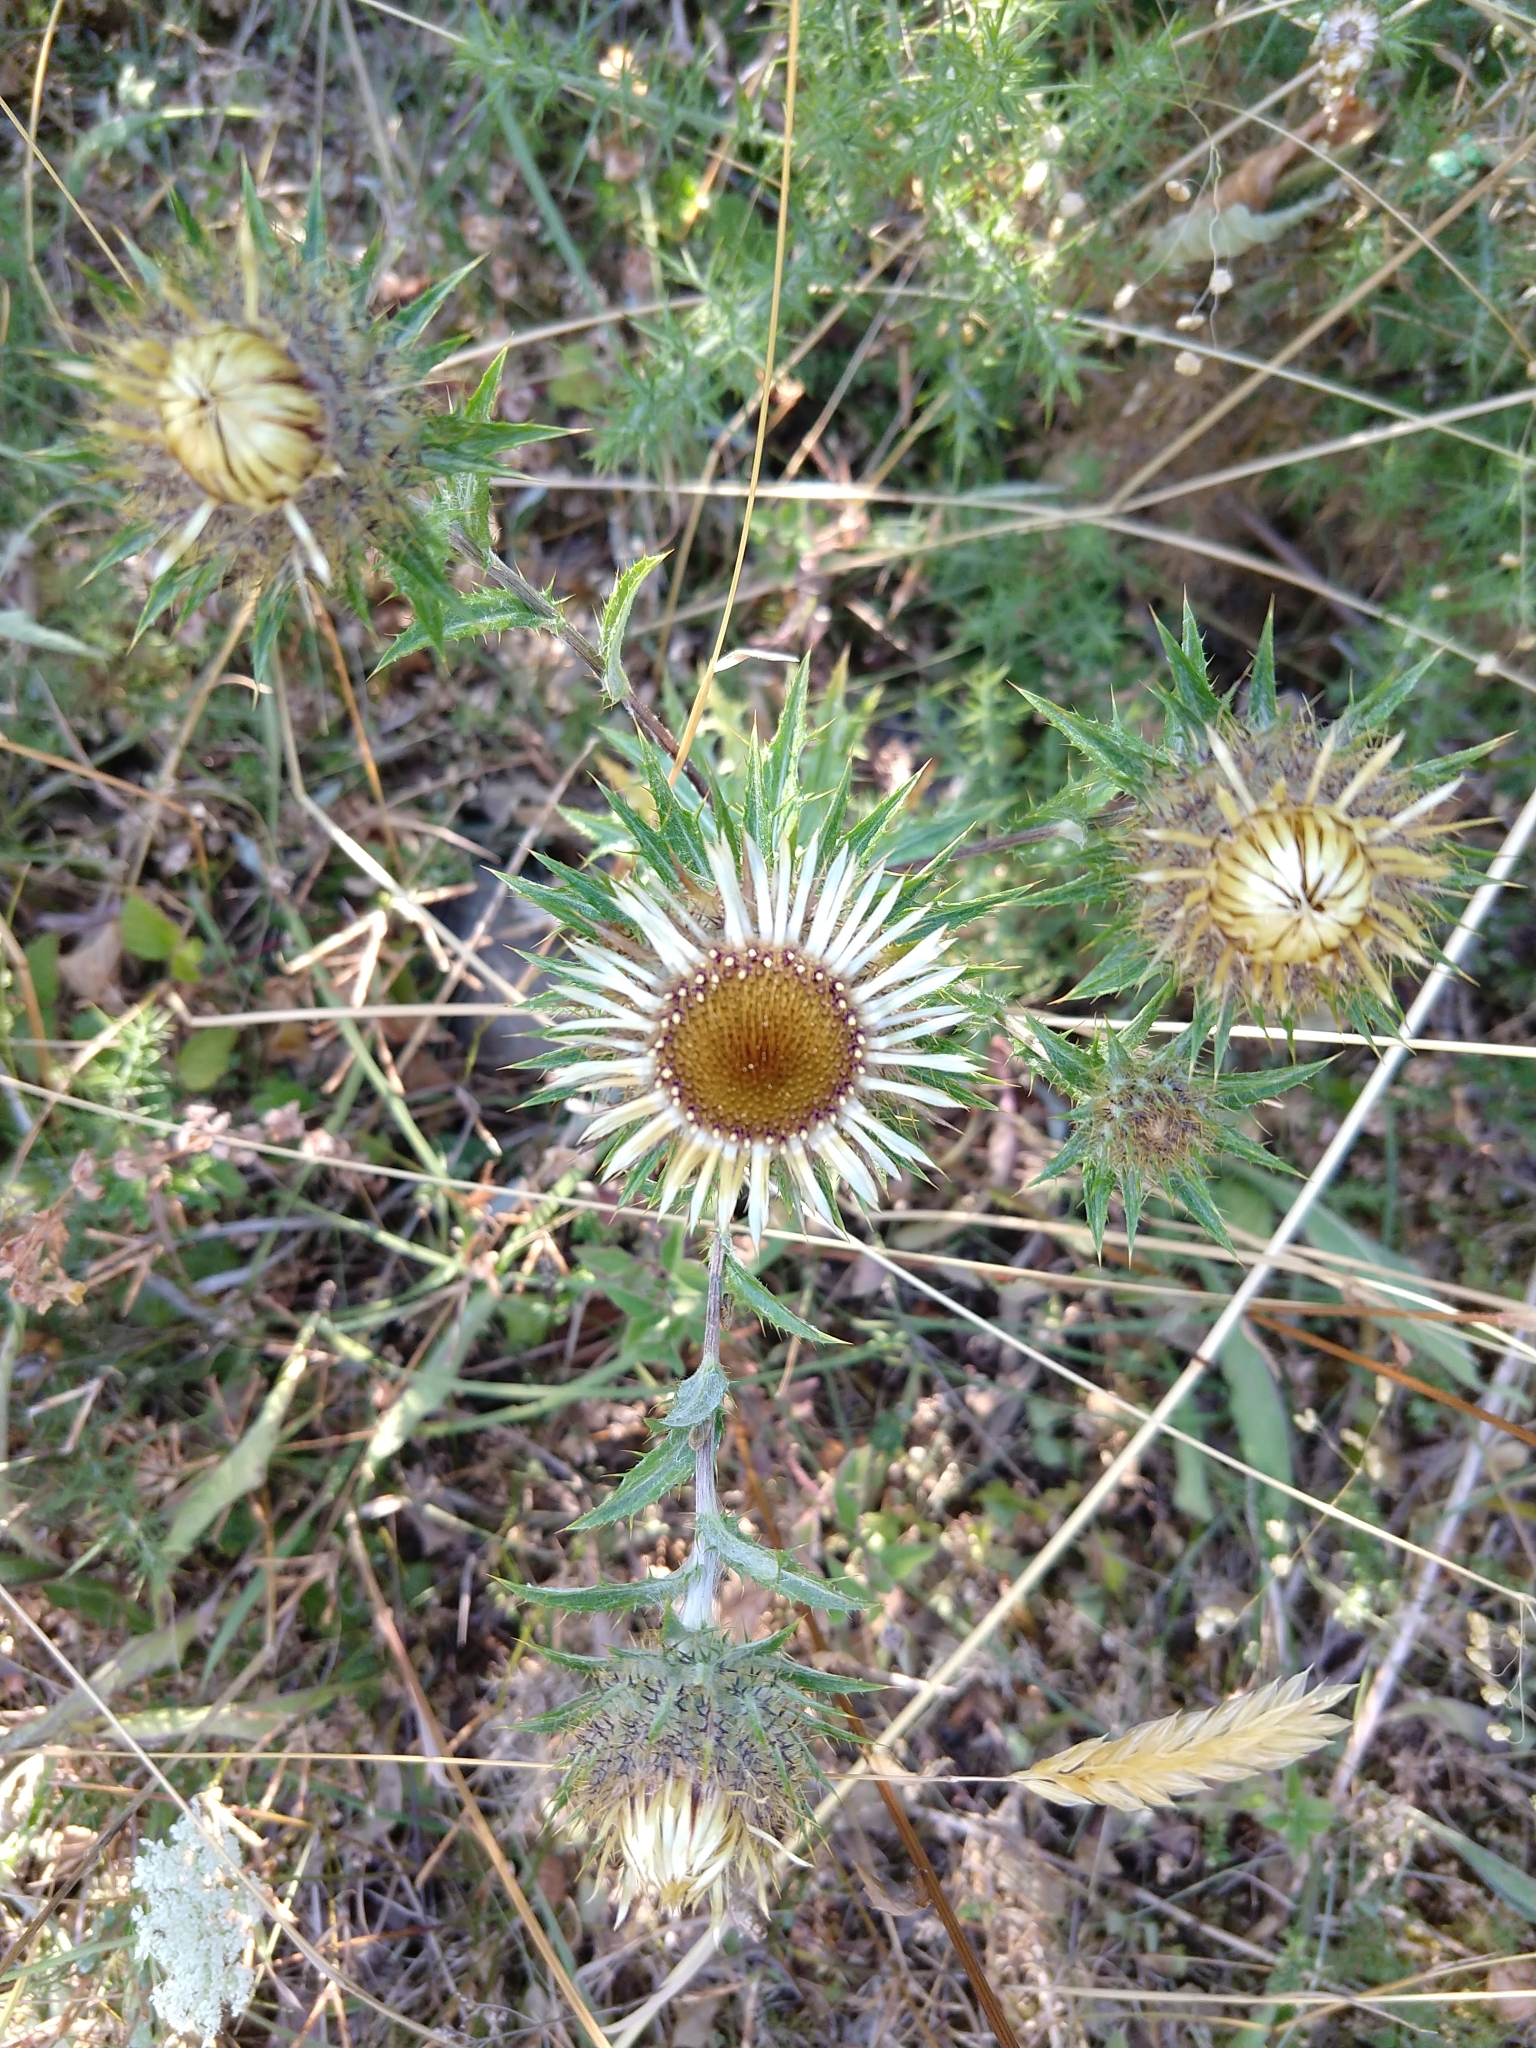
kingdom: Plantae
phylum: Tracheophyta
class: Magnoliopsida
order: Asterales
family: Asteraceae
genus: Carlina
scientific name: Carlina vulgaris
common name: Carline thistle
